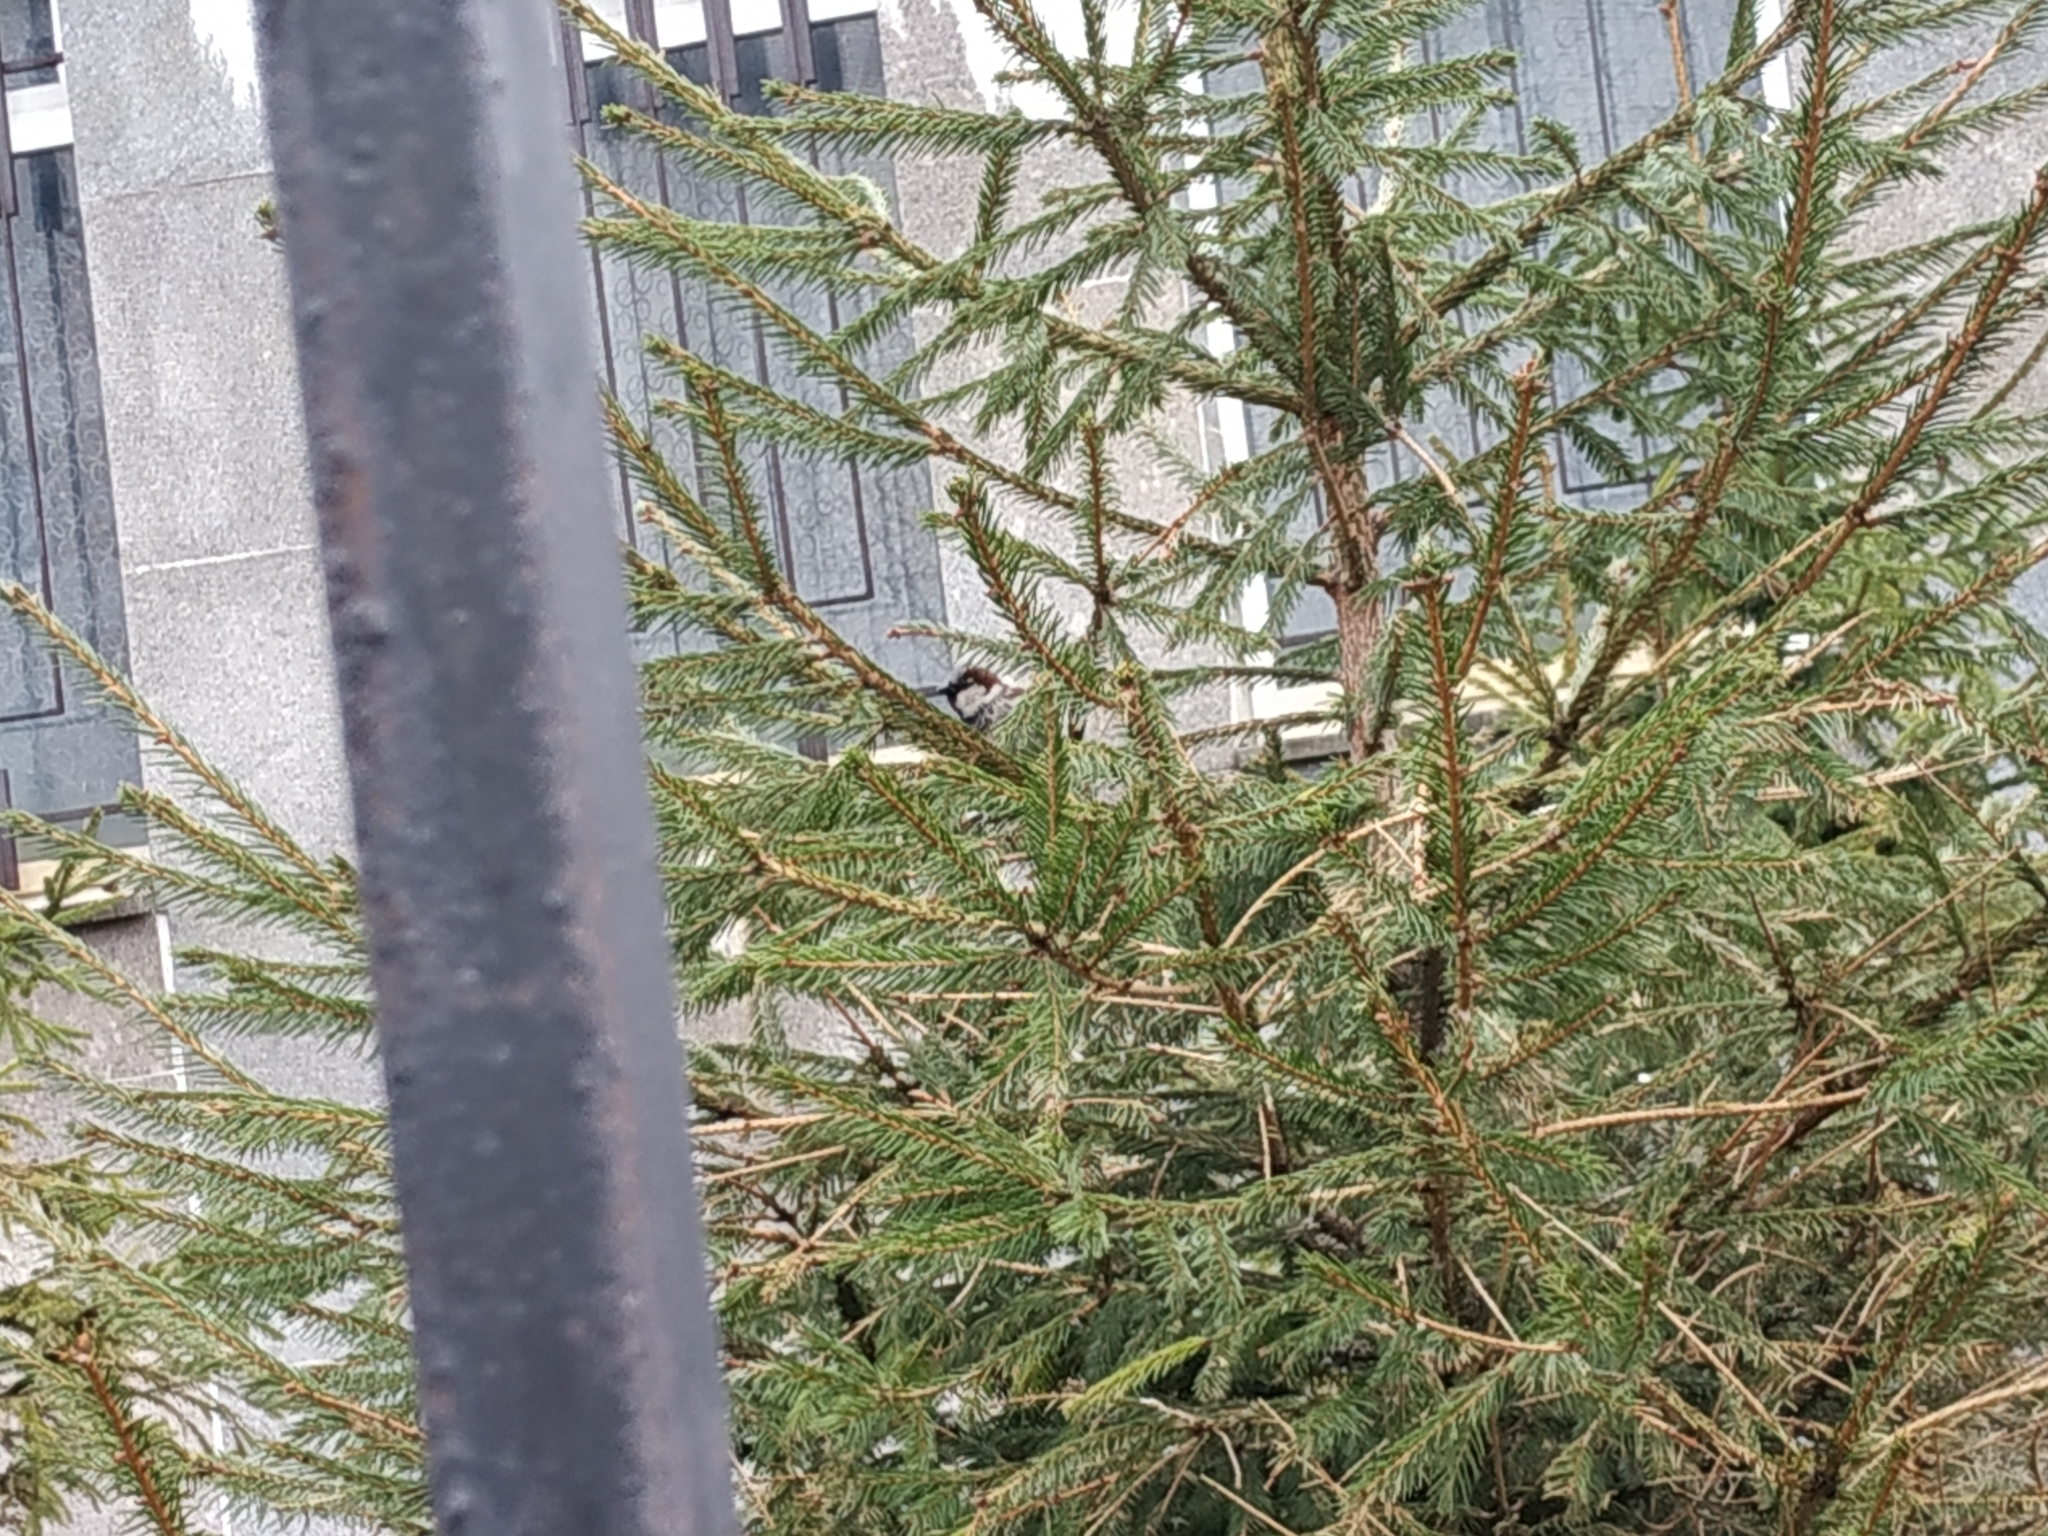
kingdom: Animalia
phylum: Chordata
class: Aves
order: Passeriformes
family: Passeridae
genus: Passer
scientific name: Passer domesticus
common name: House sparrow
